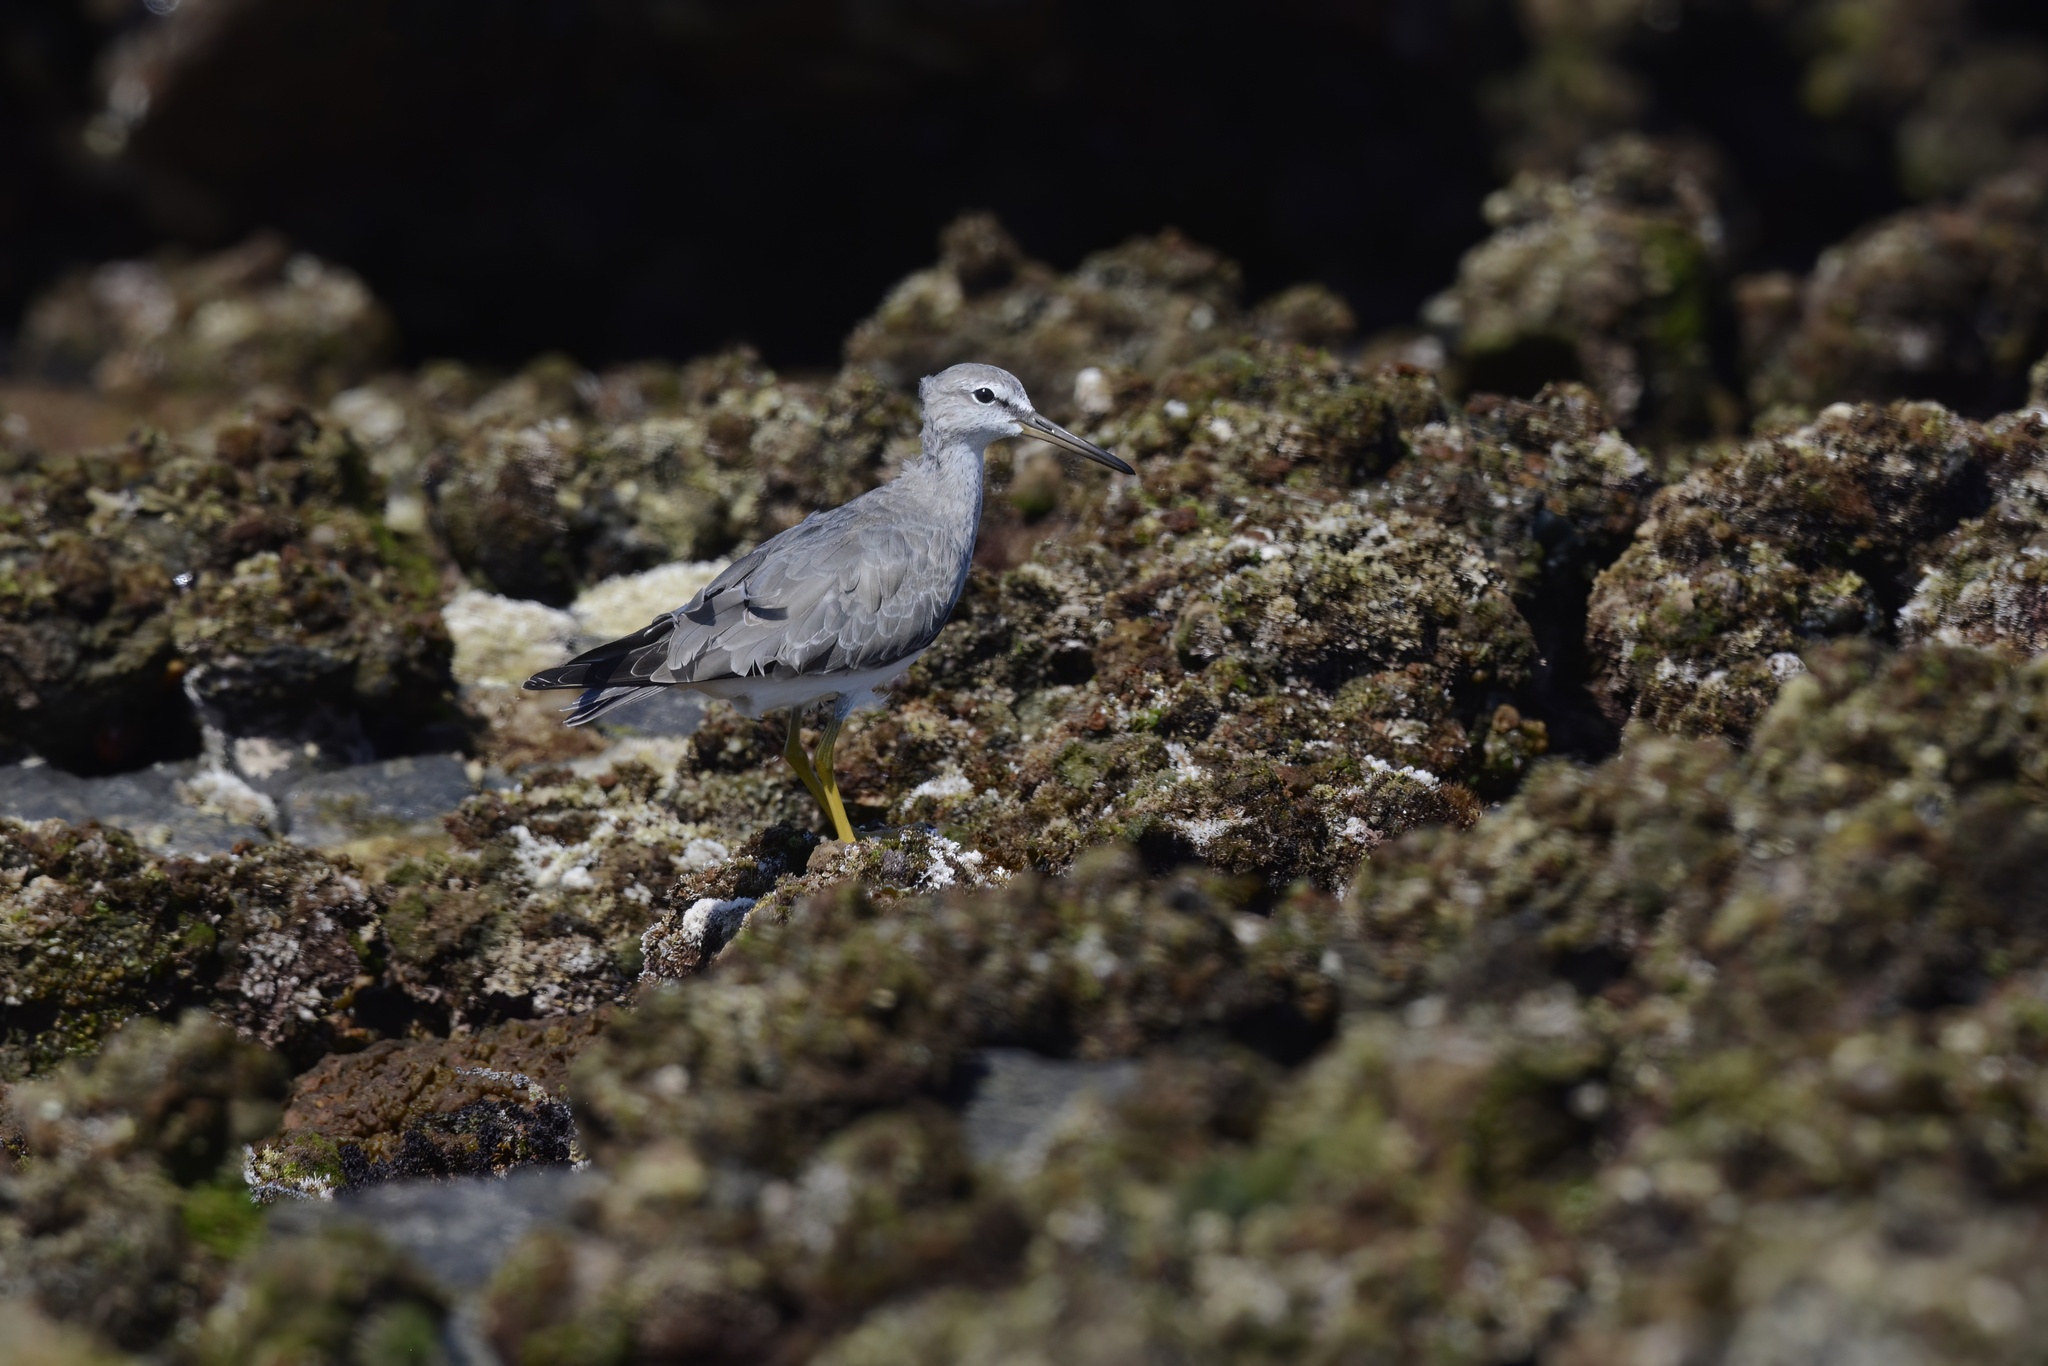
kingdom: Animalia
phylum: Chordata
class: Aves
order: Charadriiformes
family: Scolopacidae
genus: Tringa
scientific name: Tringa brevipes
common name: Grey-tailed tattler
